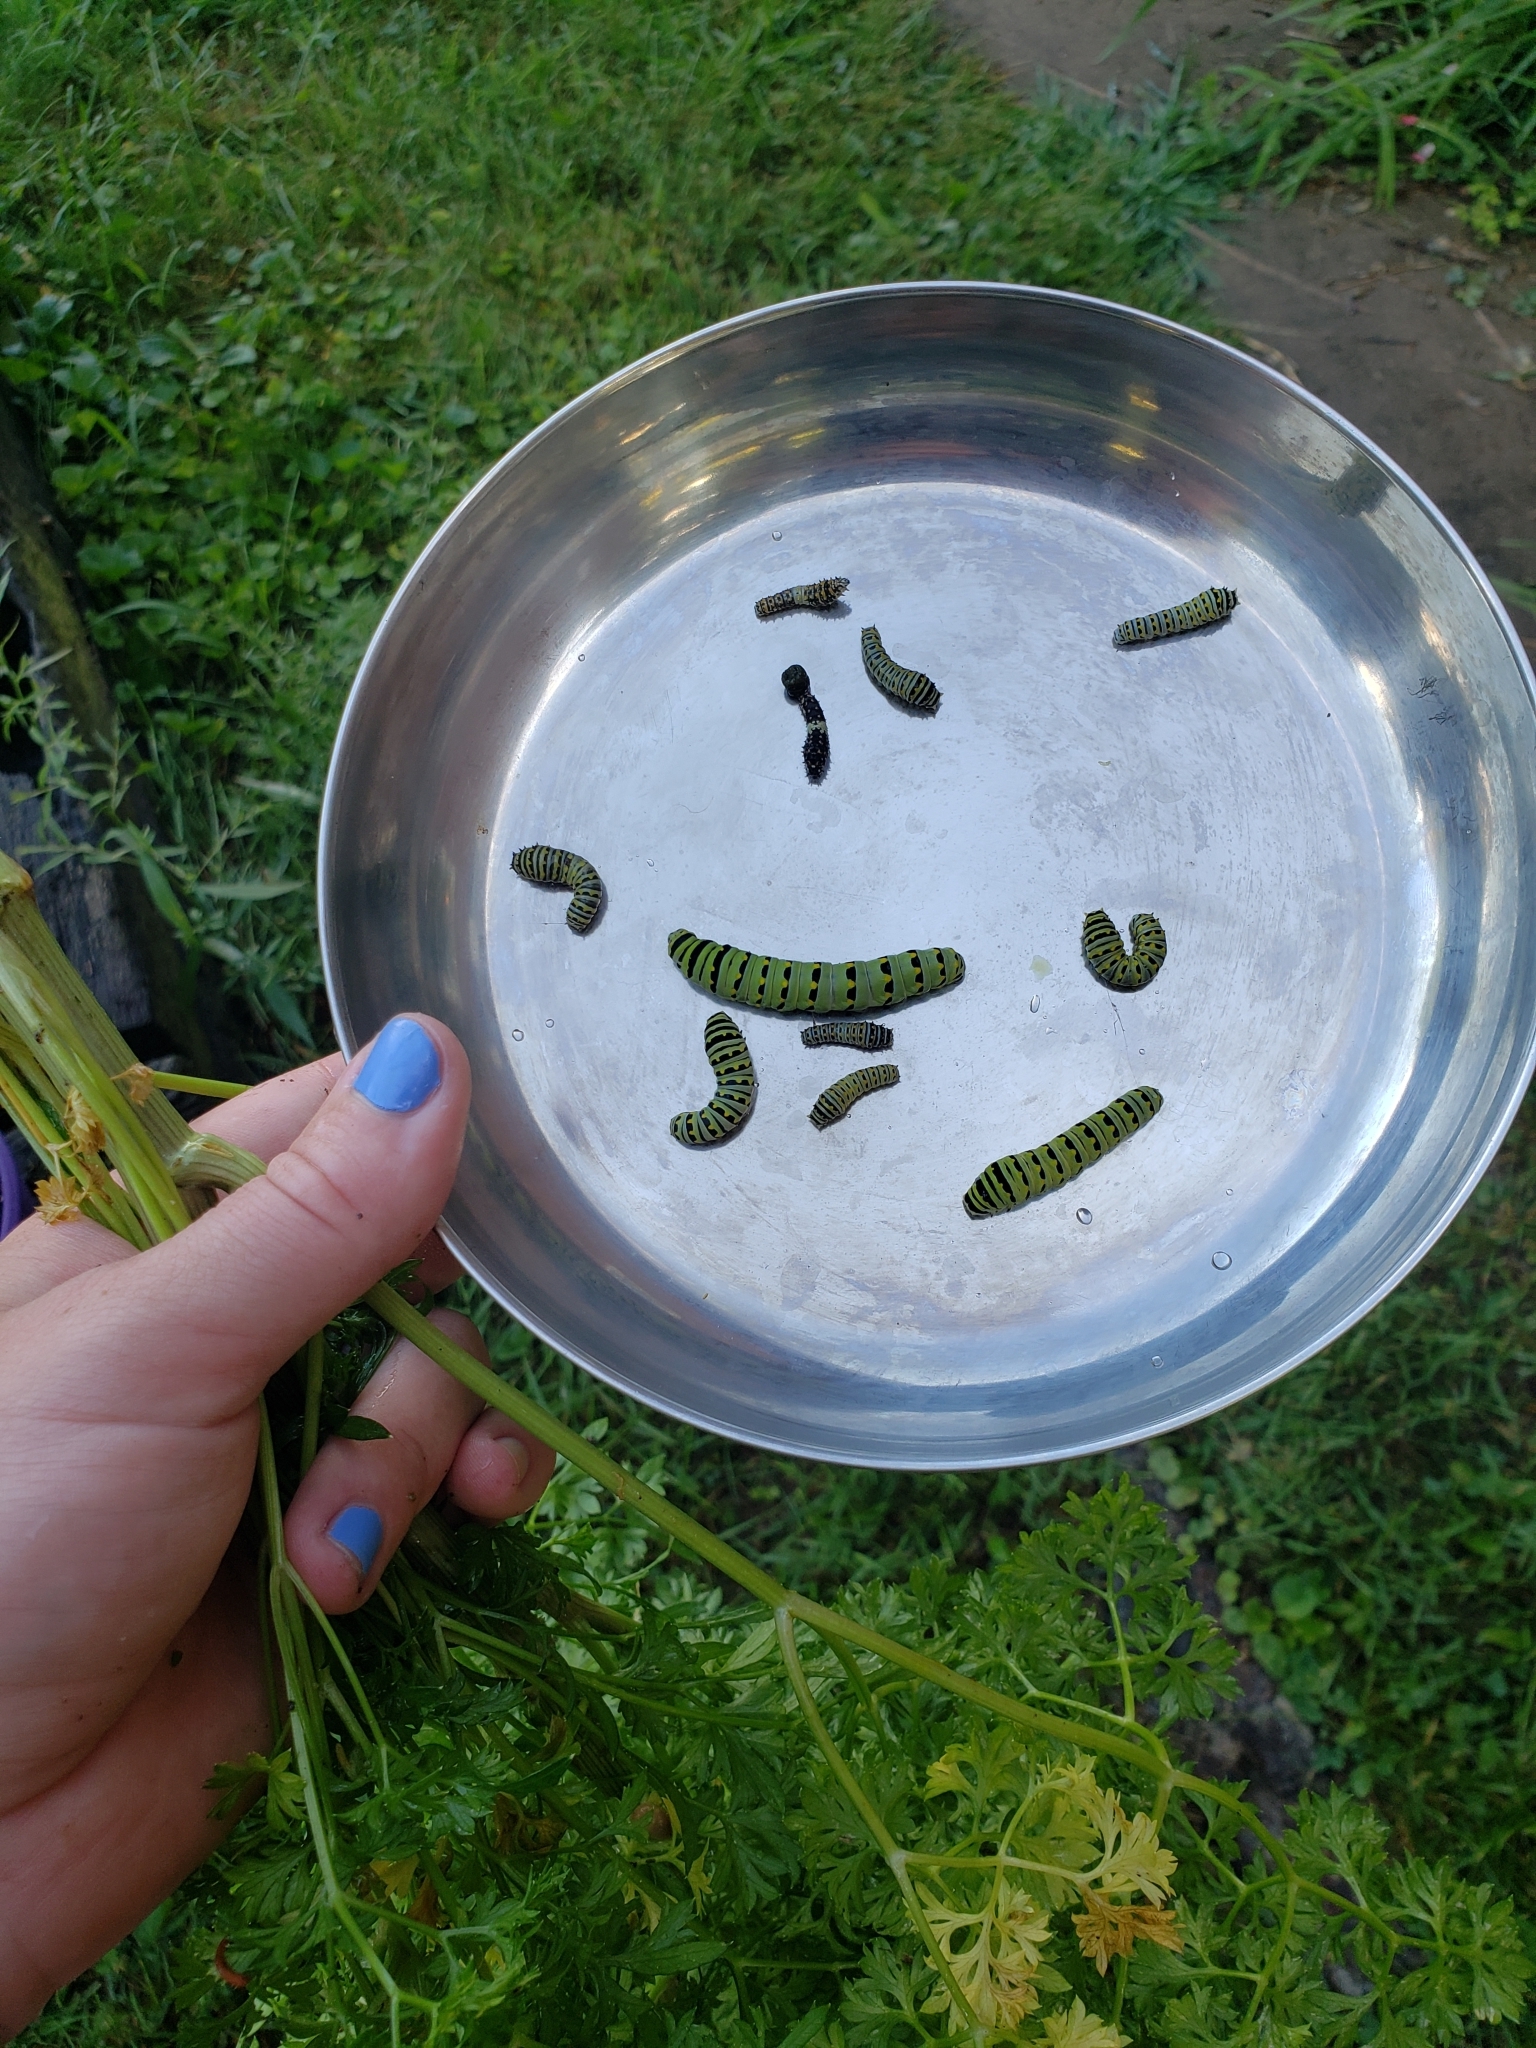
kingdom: Animalia
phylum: Arthropoda
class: Insecta
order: Lepidoptera
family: Papilionidae
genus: Papilio
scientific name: Papilio polyxenes
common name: Black swallowtail
